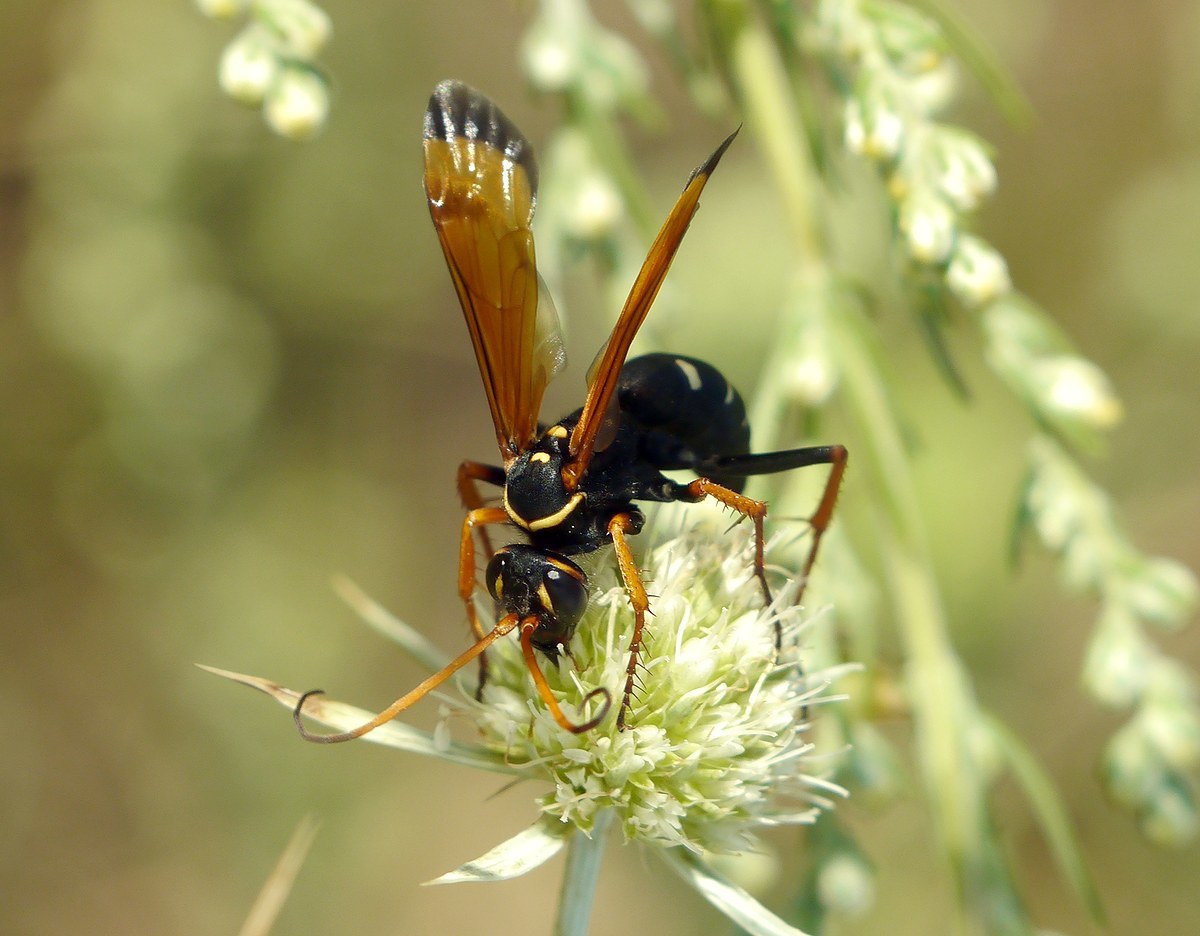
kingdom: Animalia
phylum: Arthropoda
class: Insecta
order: Hymenoptera
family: Pompilidae
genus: Parabatozonus
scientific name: Parabatozonus lacerticida
